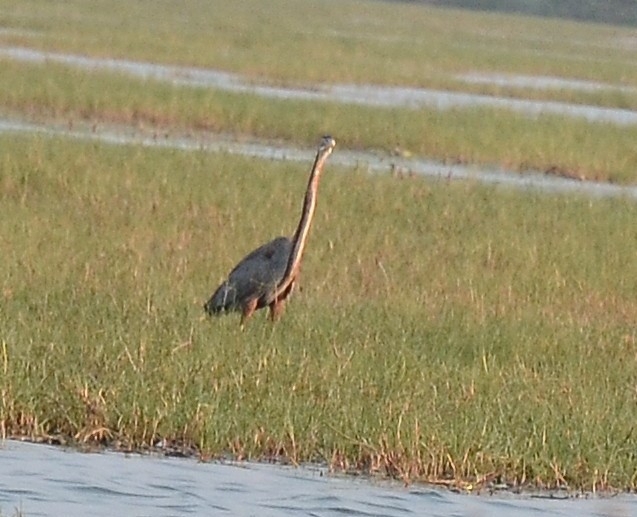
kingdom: Animalia
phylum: Chordata
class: Aves
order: Pelecaniformes
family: Ardeidae
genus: Ardea
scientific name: Ardea purpurea
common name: Purple heron
